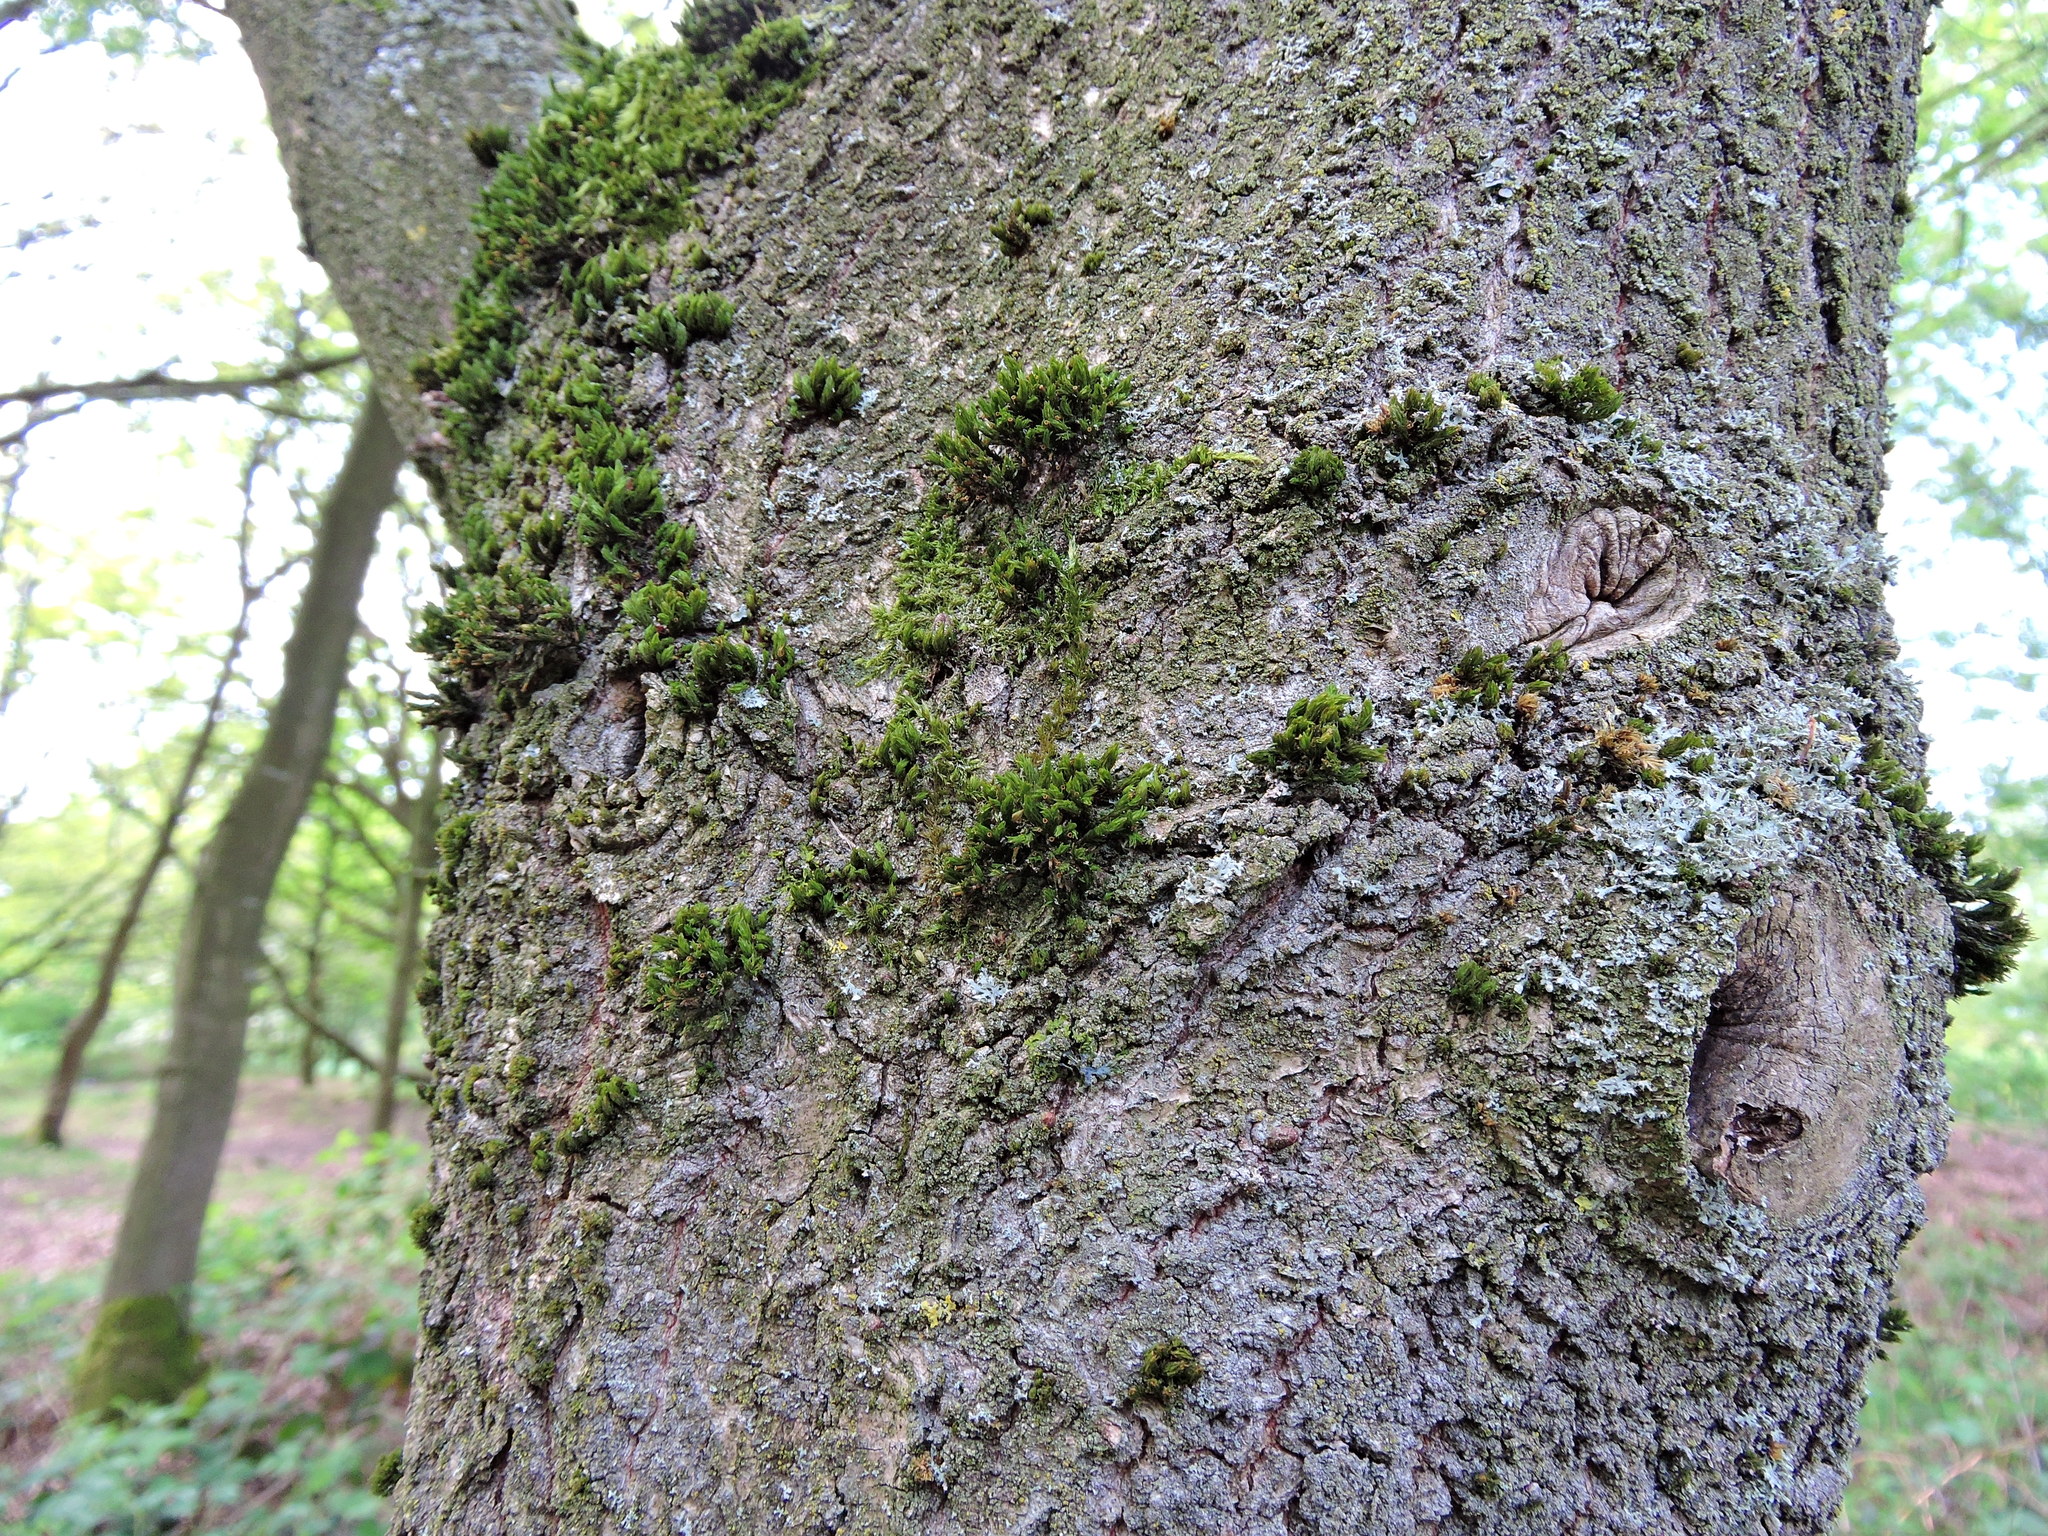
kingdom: Plantae
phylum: Bryophyta
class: Bryopsida
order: Orthotrichales
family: Orthotrichaceae
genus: Lewinskya
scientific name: Lewinskya affinis
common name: Wood bristle-moss
